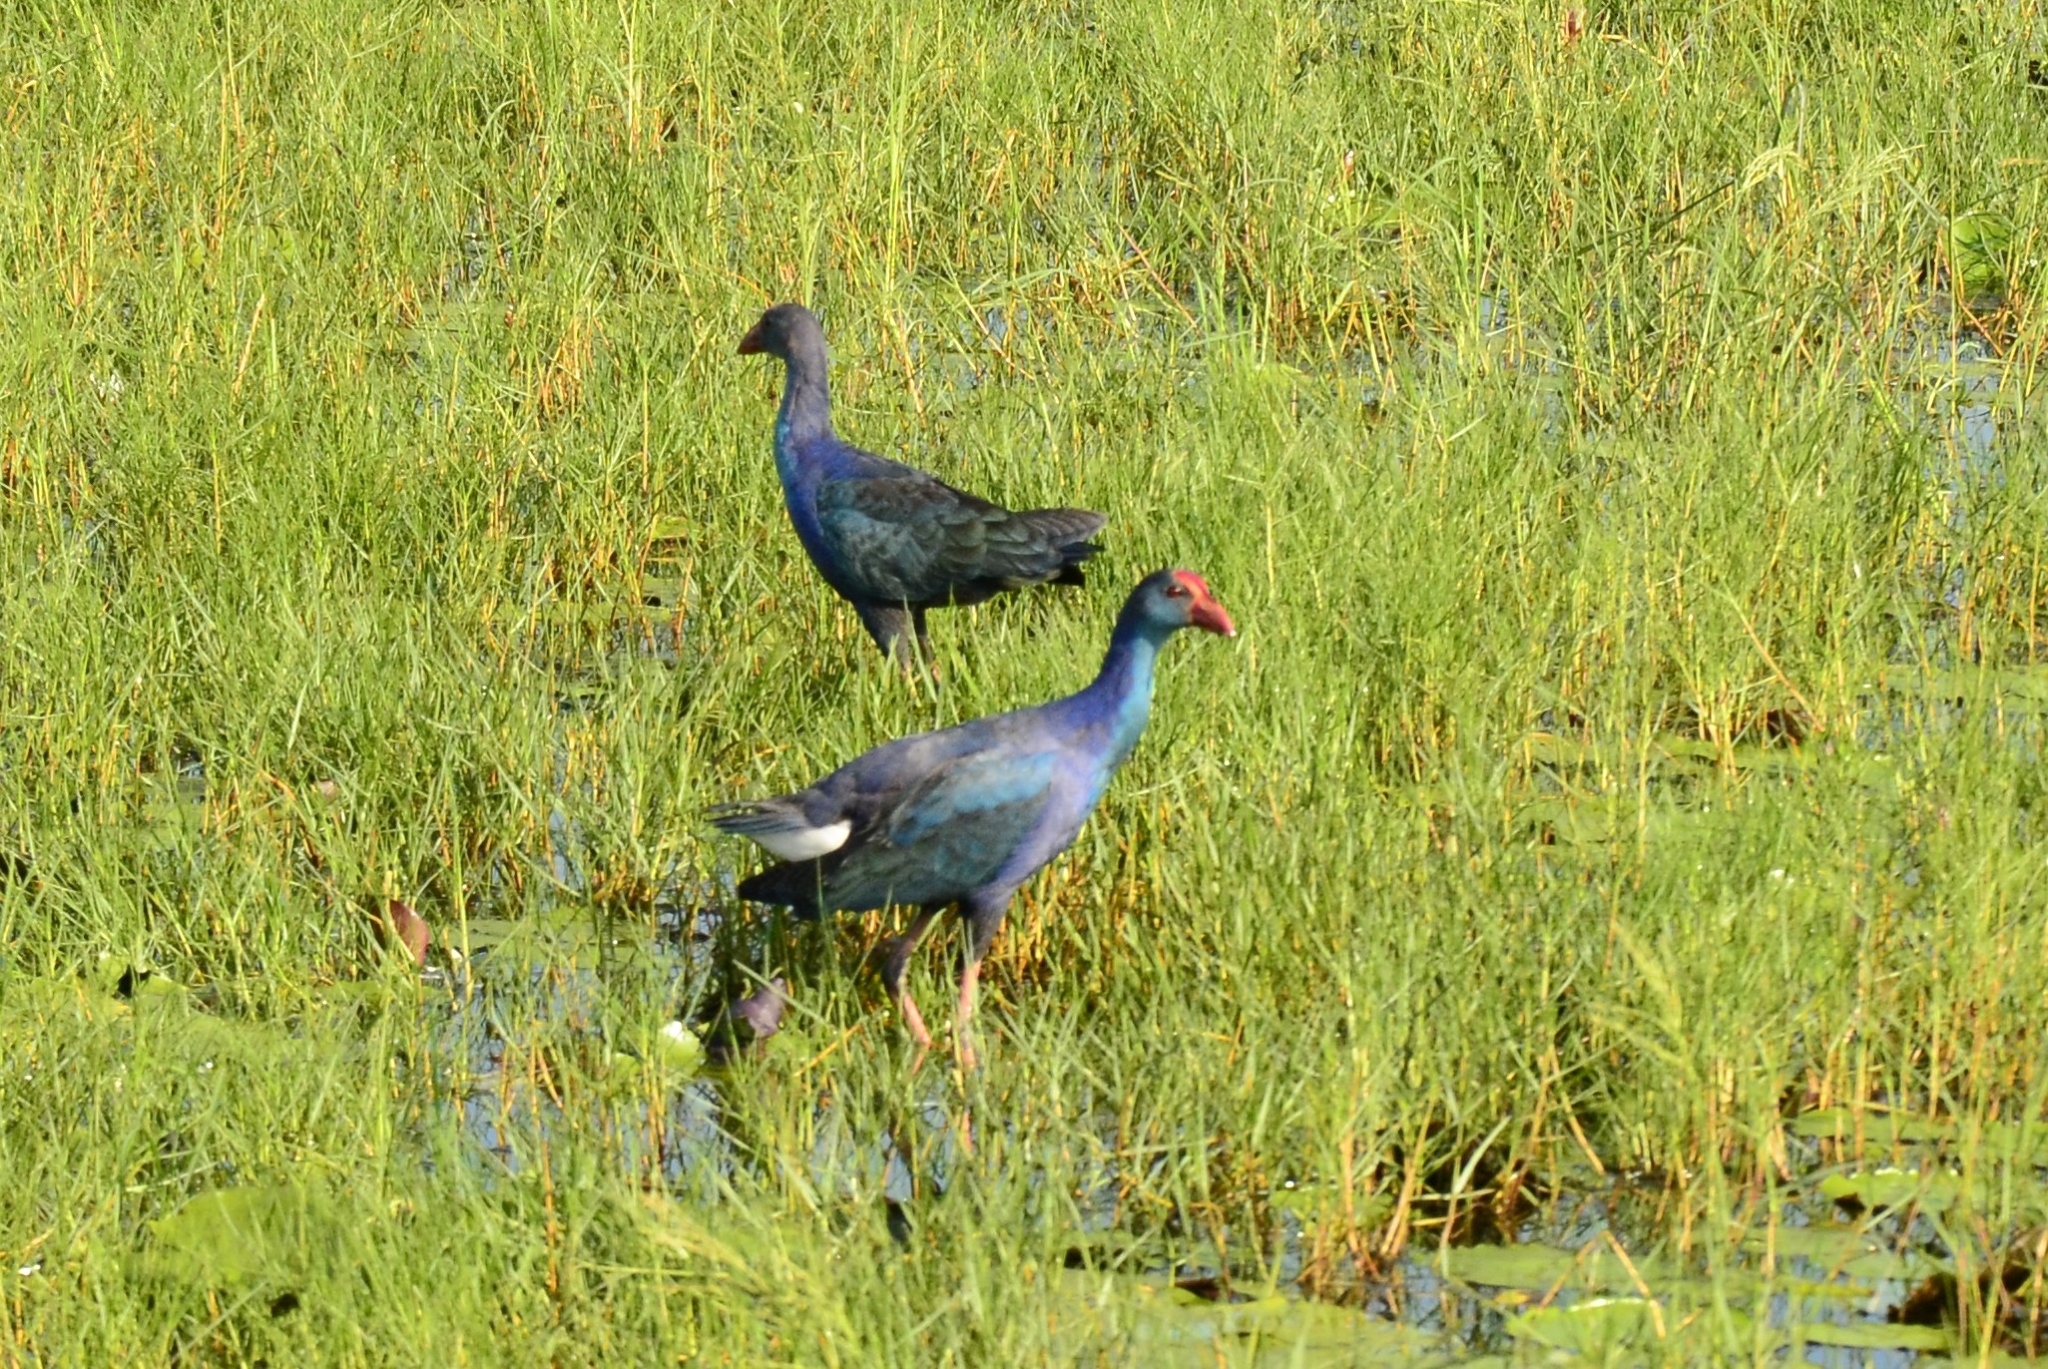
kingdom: Animalia
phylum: Chordata
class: Aves
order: Gruiformes
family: Rallidae
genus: Porphyrio
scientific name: Porphyrio porphyrio
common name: Purple swamphen
